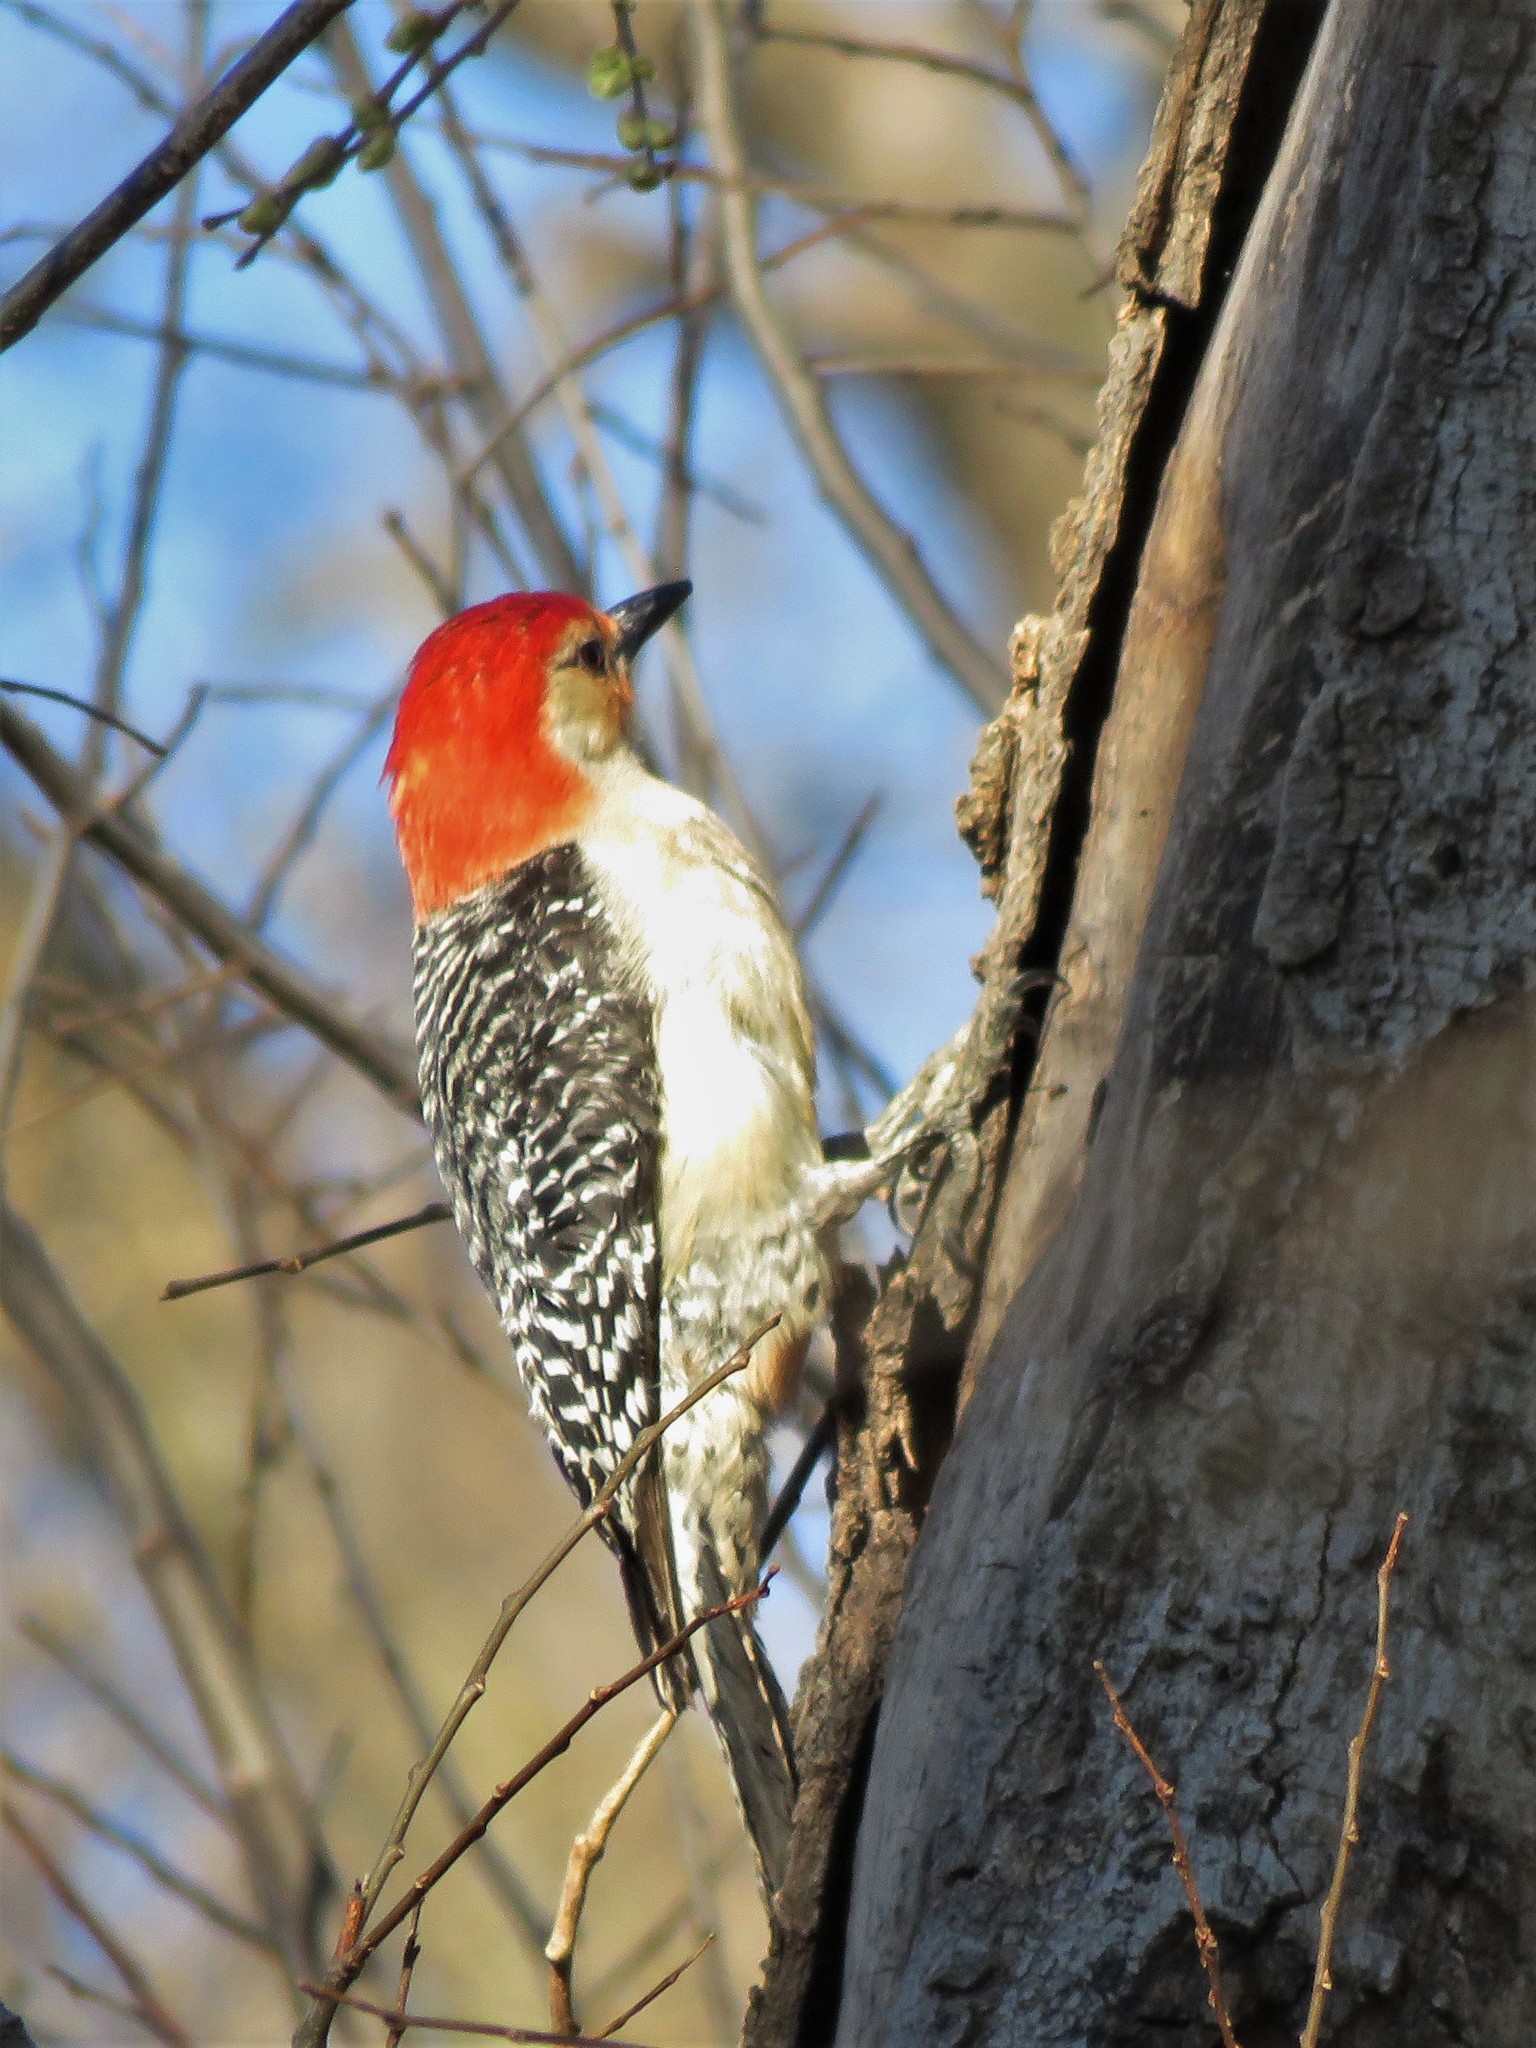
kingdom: Animalia
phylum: Chordata
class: Aves
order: Piciformes
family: Picidae
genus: Melanerpes
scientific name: Melanerpes carolinus
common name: Red-bellied woodpecker
